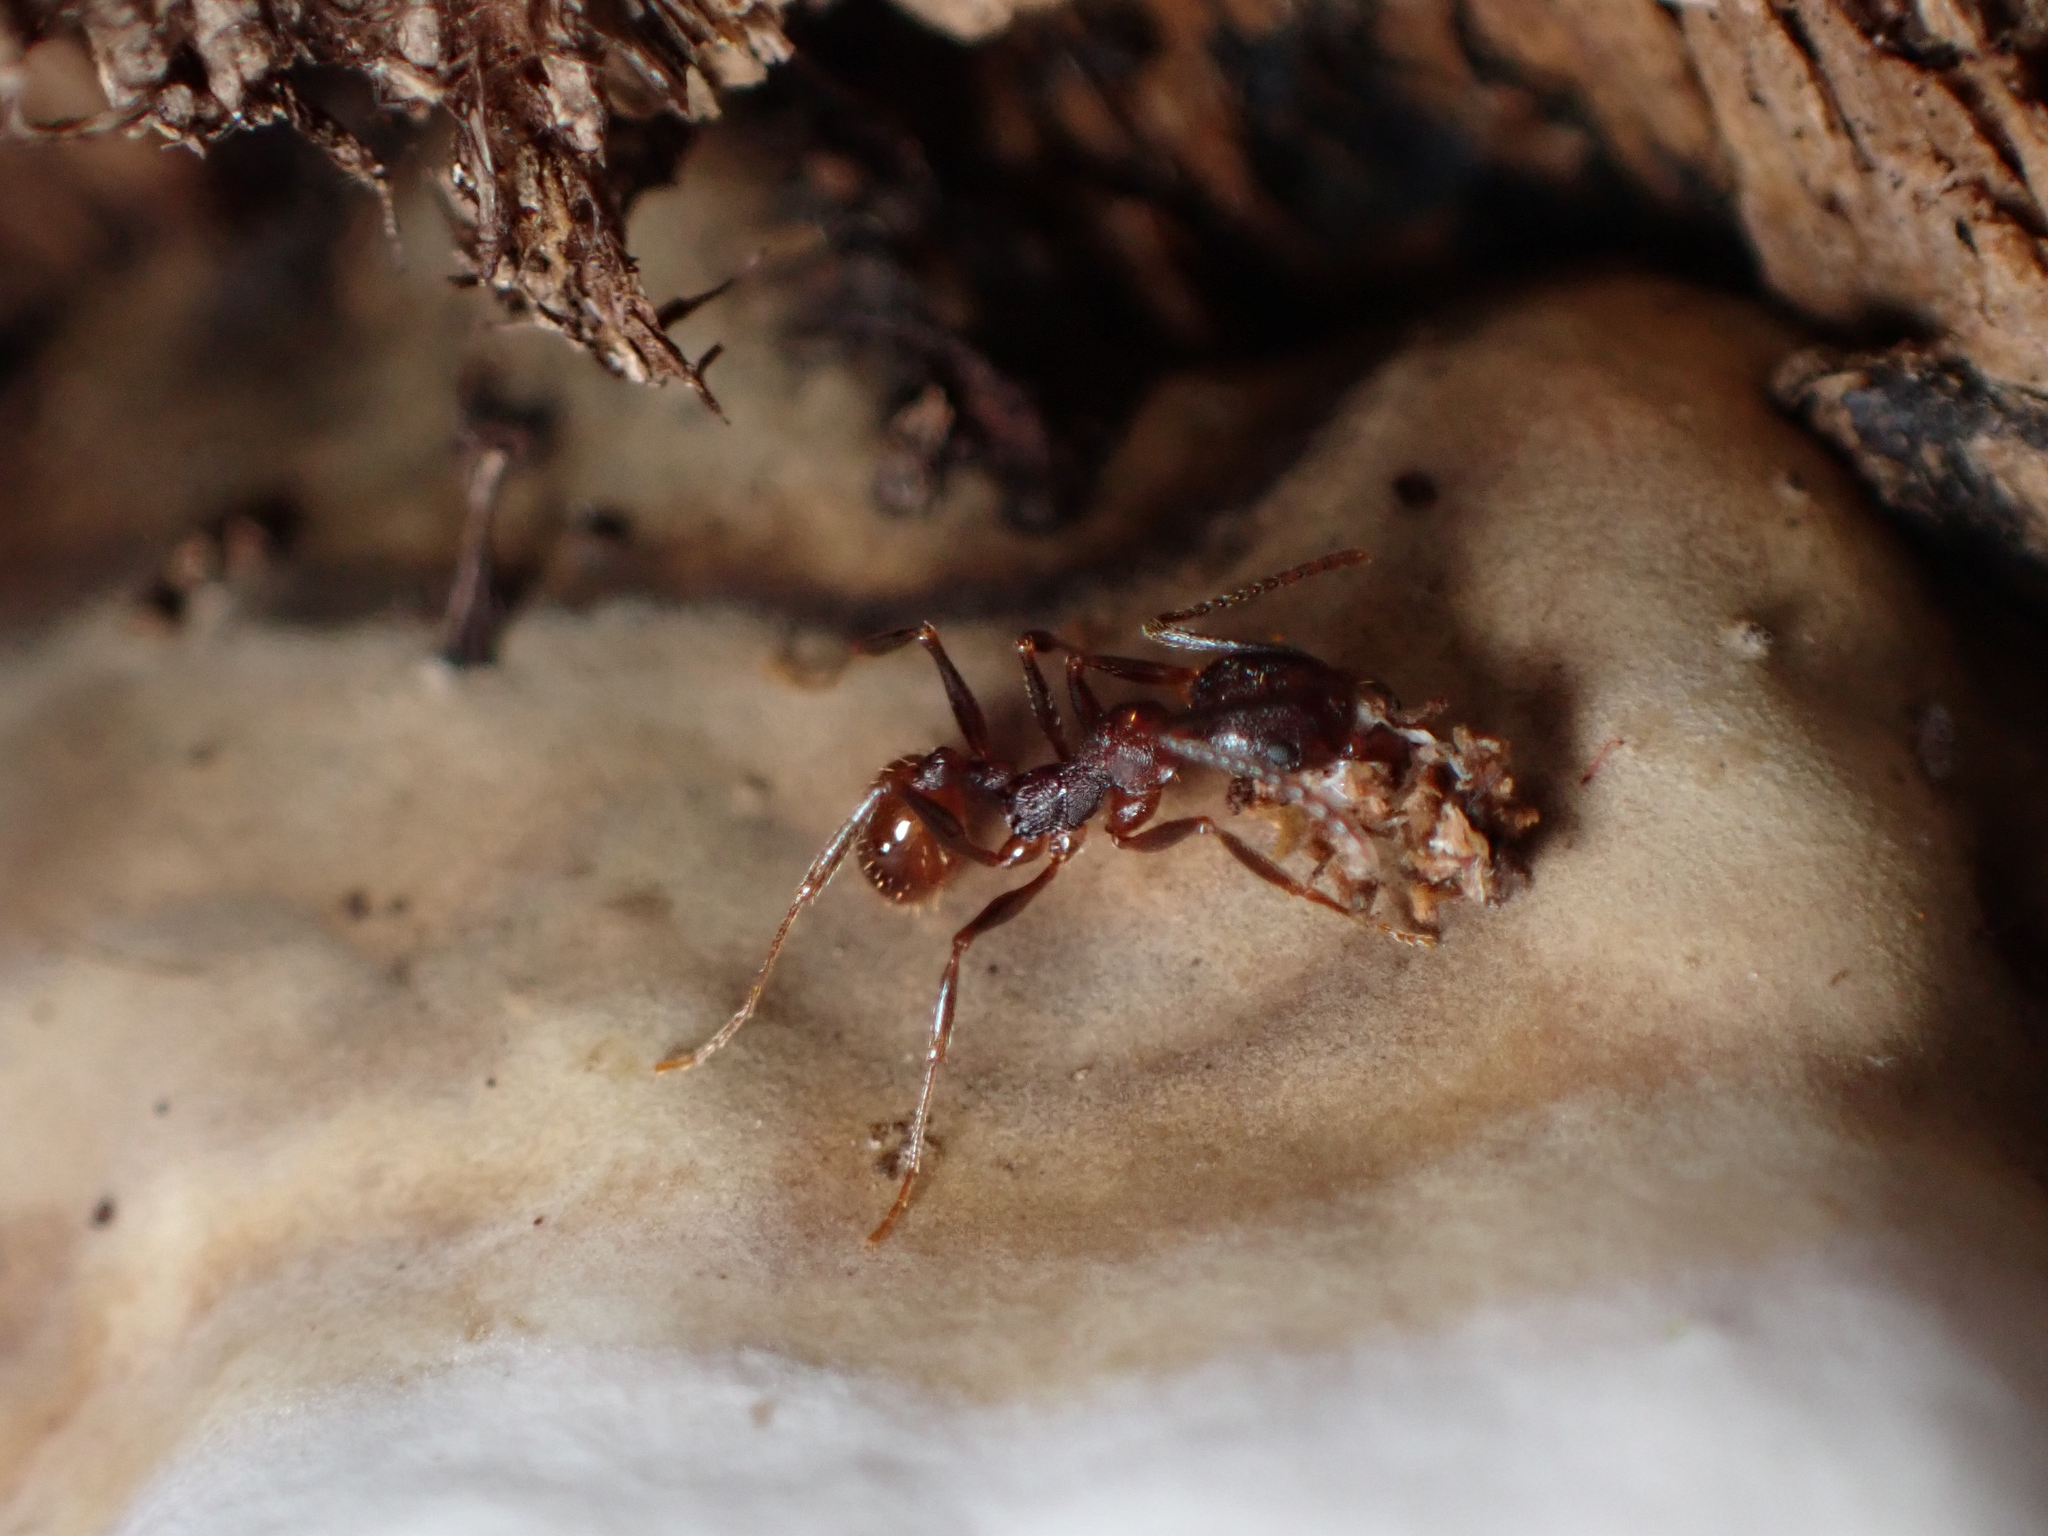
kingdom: Animalia
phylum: Arthropoda
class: Insecta
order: Hymenoptera
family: Formicidae
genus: Aphaenogaster
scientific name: Aphaenogaster fulva
